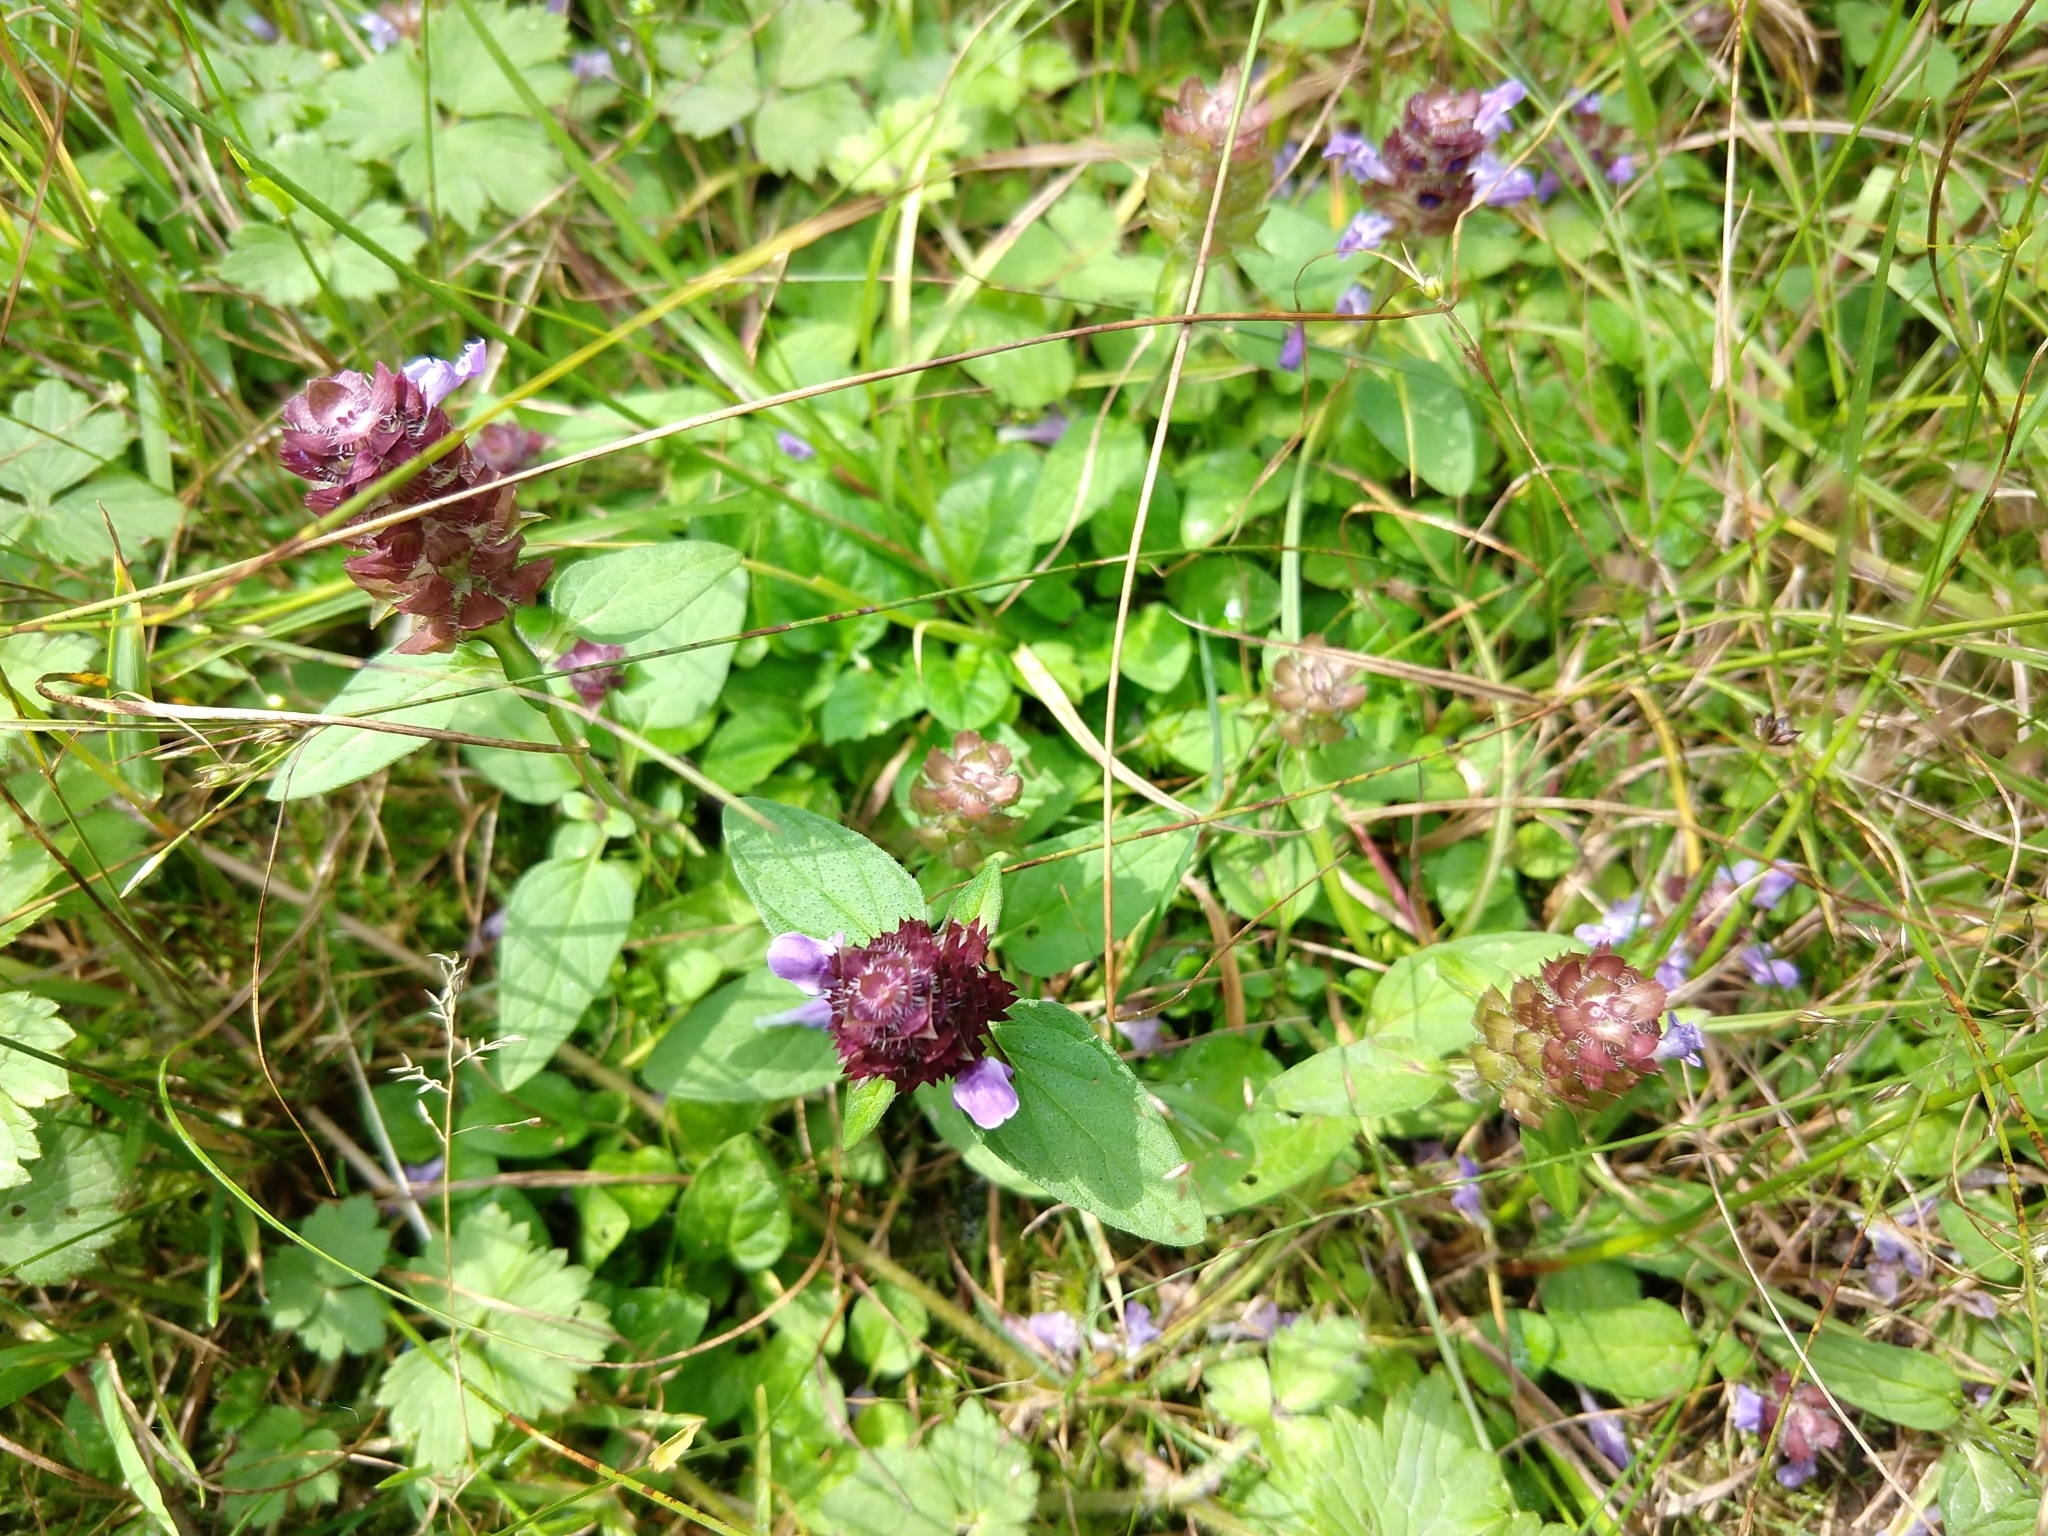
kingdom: Plantae
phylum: Tracheophyta
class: Magnoliopsida
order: Lamiales
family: Lamiaceae
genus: Prunella
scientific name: Prunella vulgaris
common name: Heal-all
